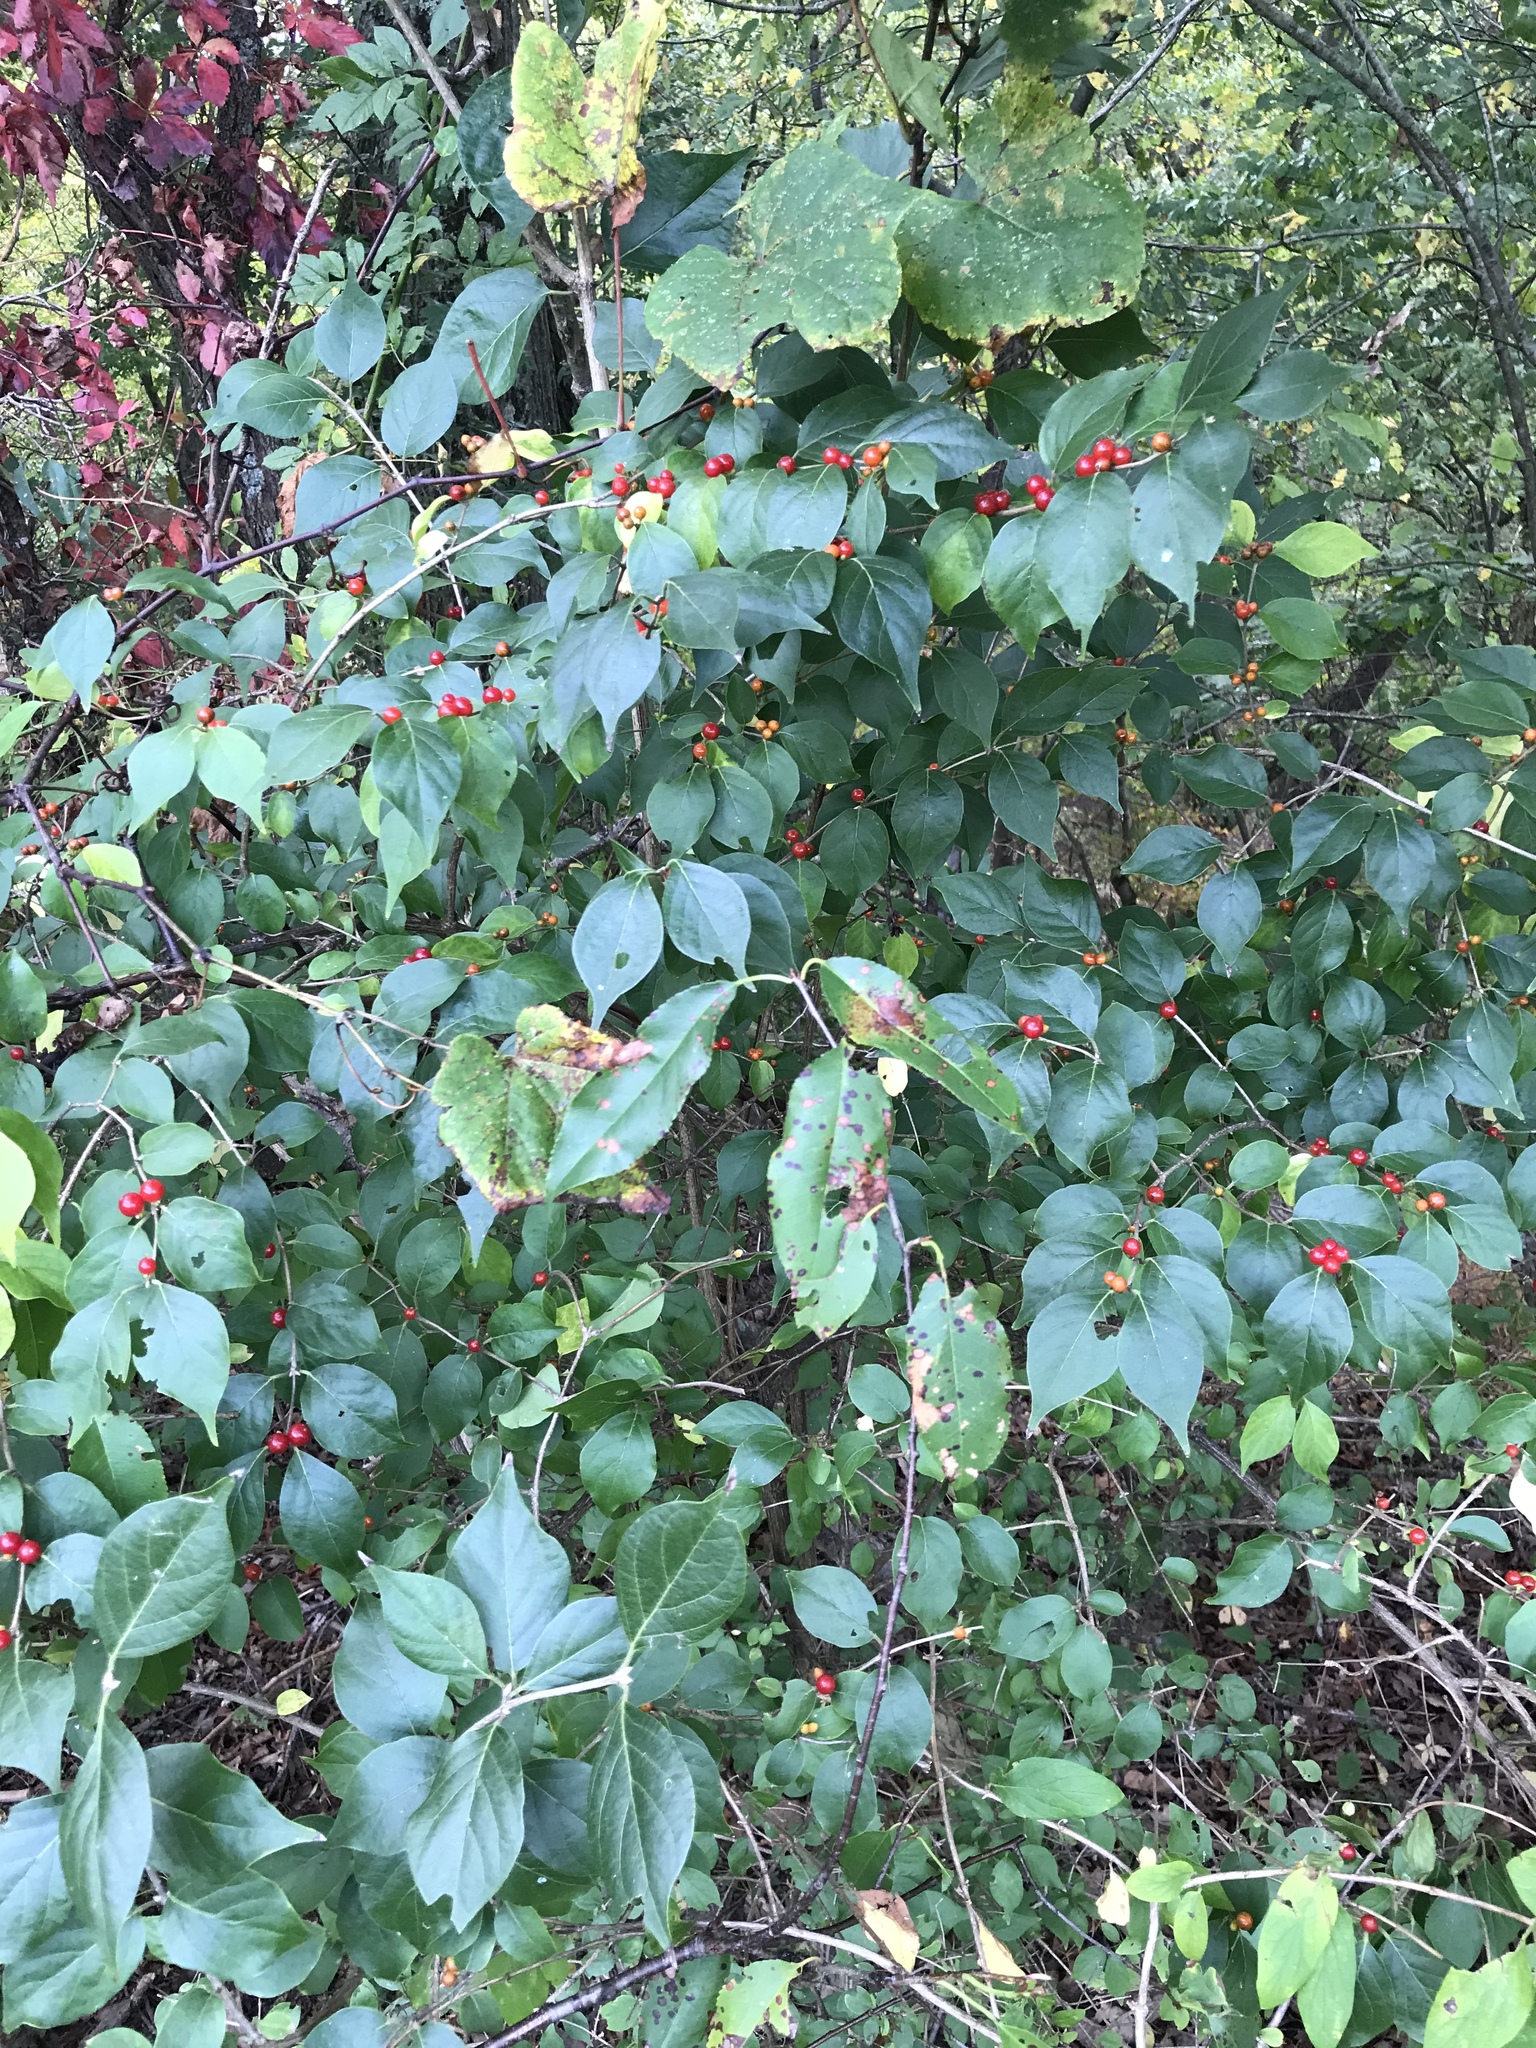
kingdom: Plantae
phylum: Tracheophyta
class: Magnoliopsida
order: Dipsacales
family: Caprifoliaceae
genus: Lonicera
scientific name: Lonicera maackii
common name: Amur honeysuckle
